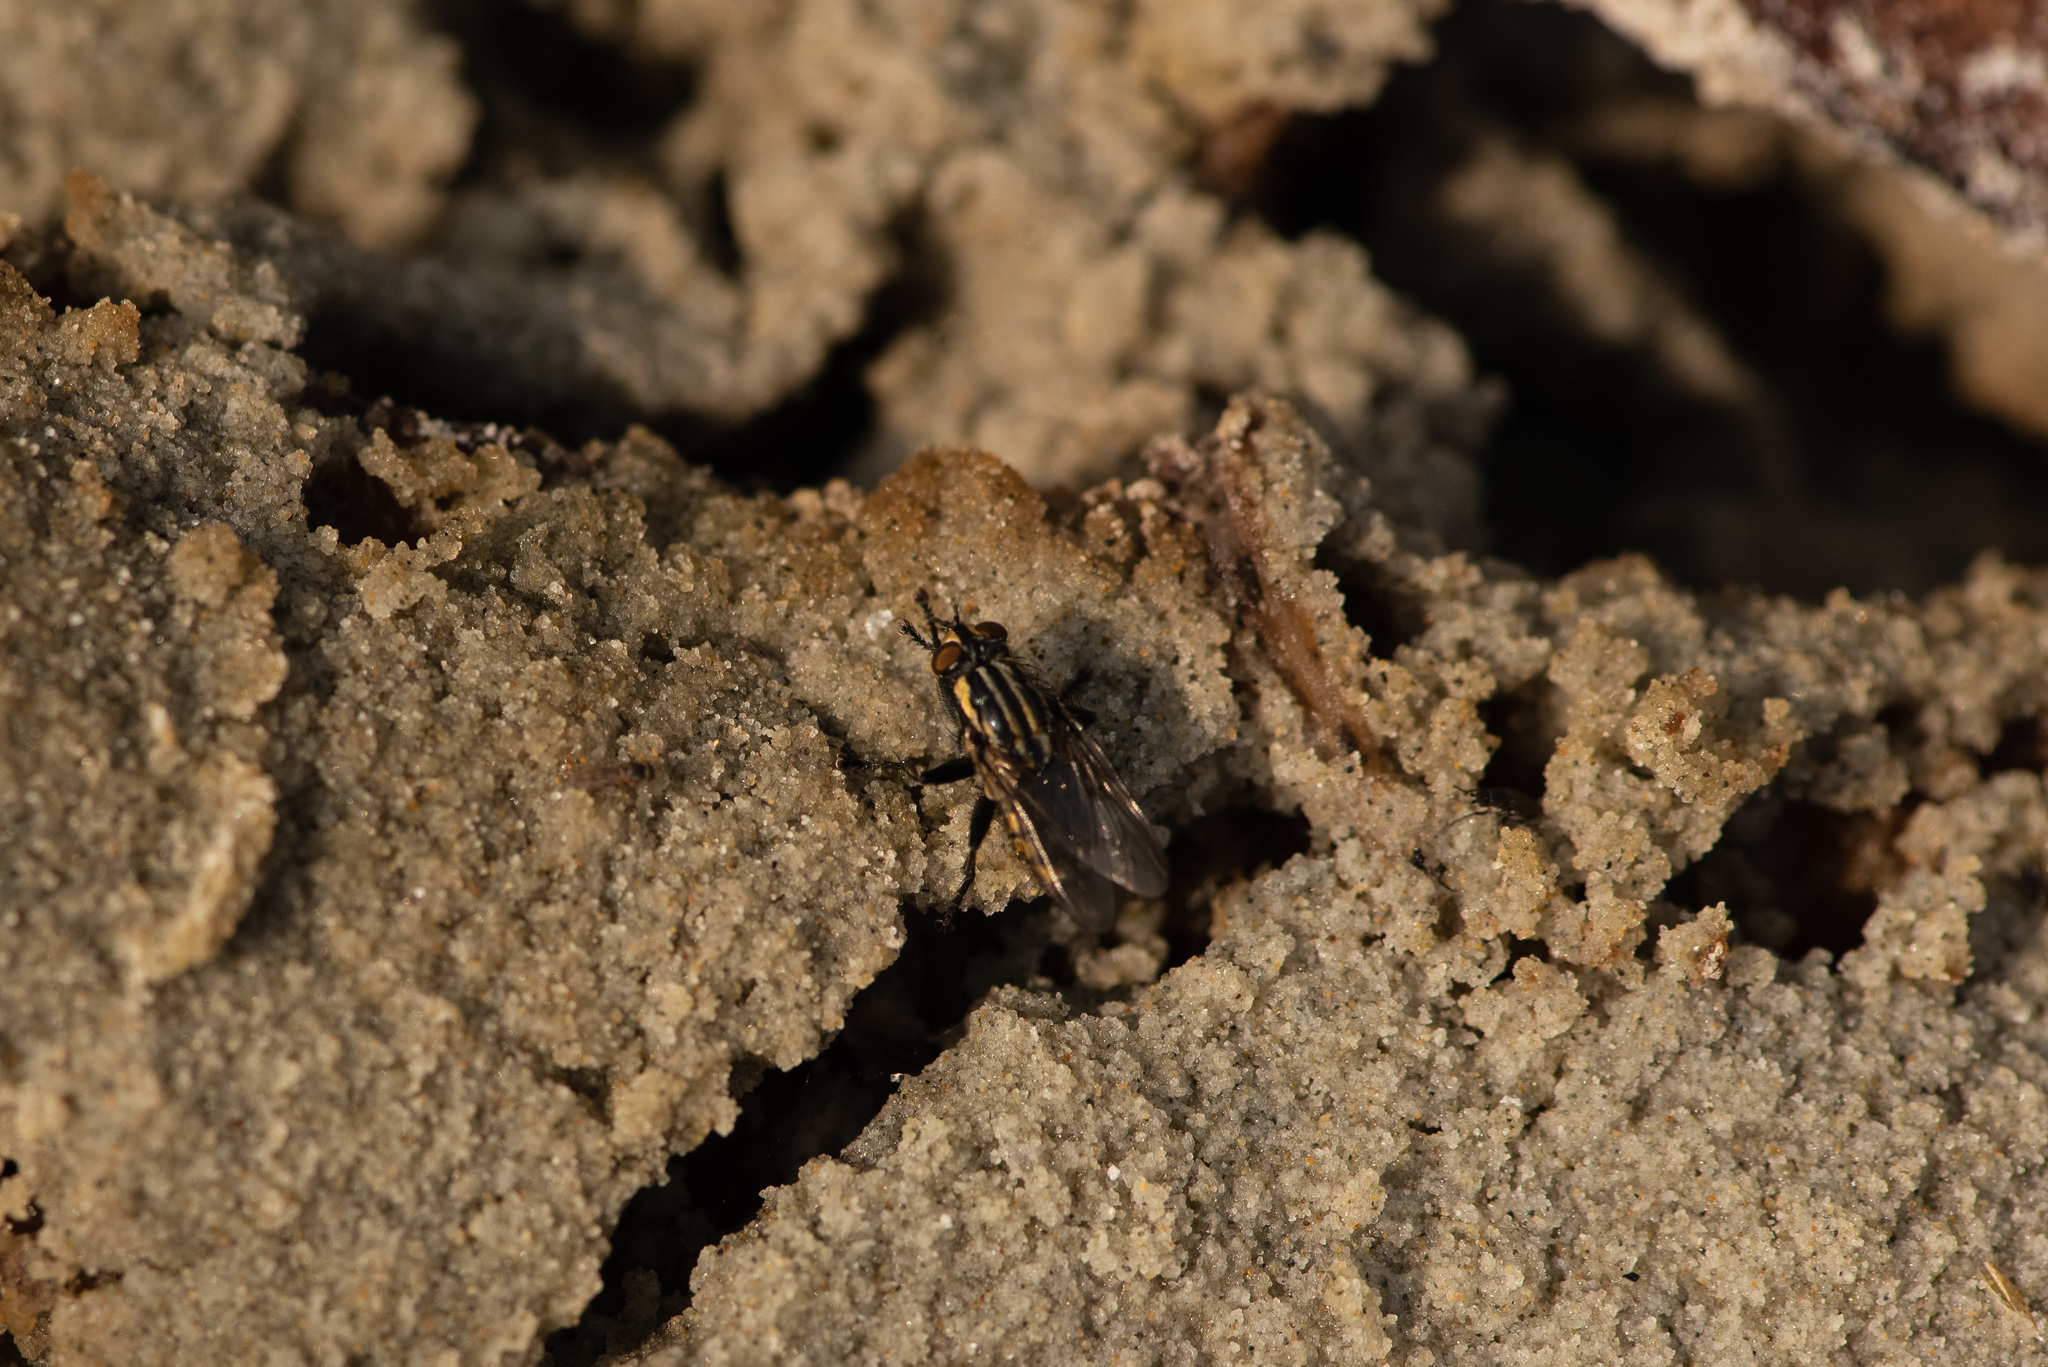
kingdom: Animalia
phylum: Arthropoda
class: Insecta
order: Diptera
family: Sarcophagidae
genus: Oxysarcodexia
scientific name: Oxysarcodexia varia
